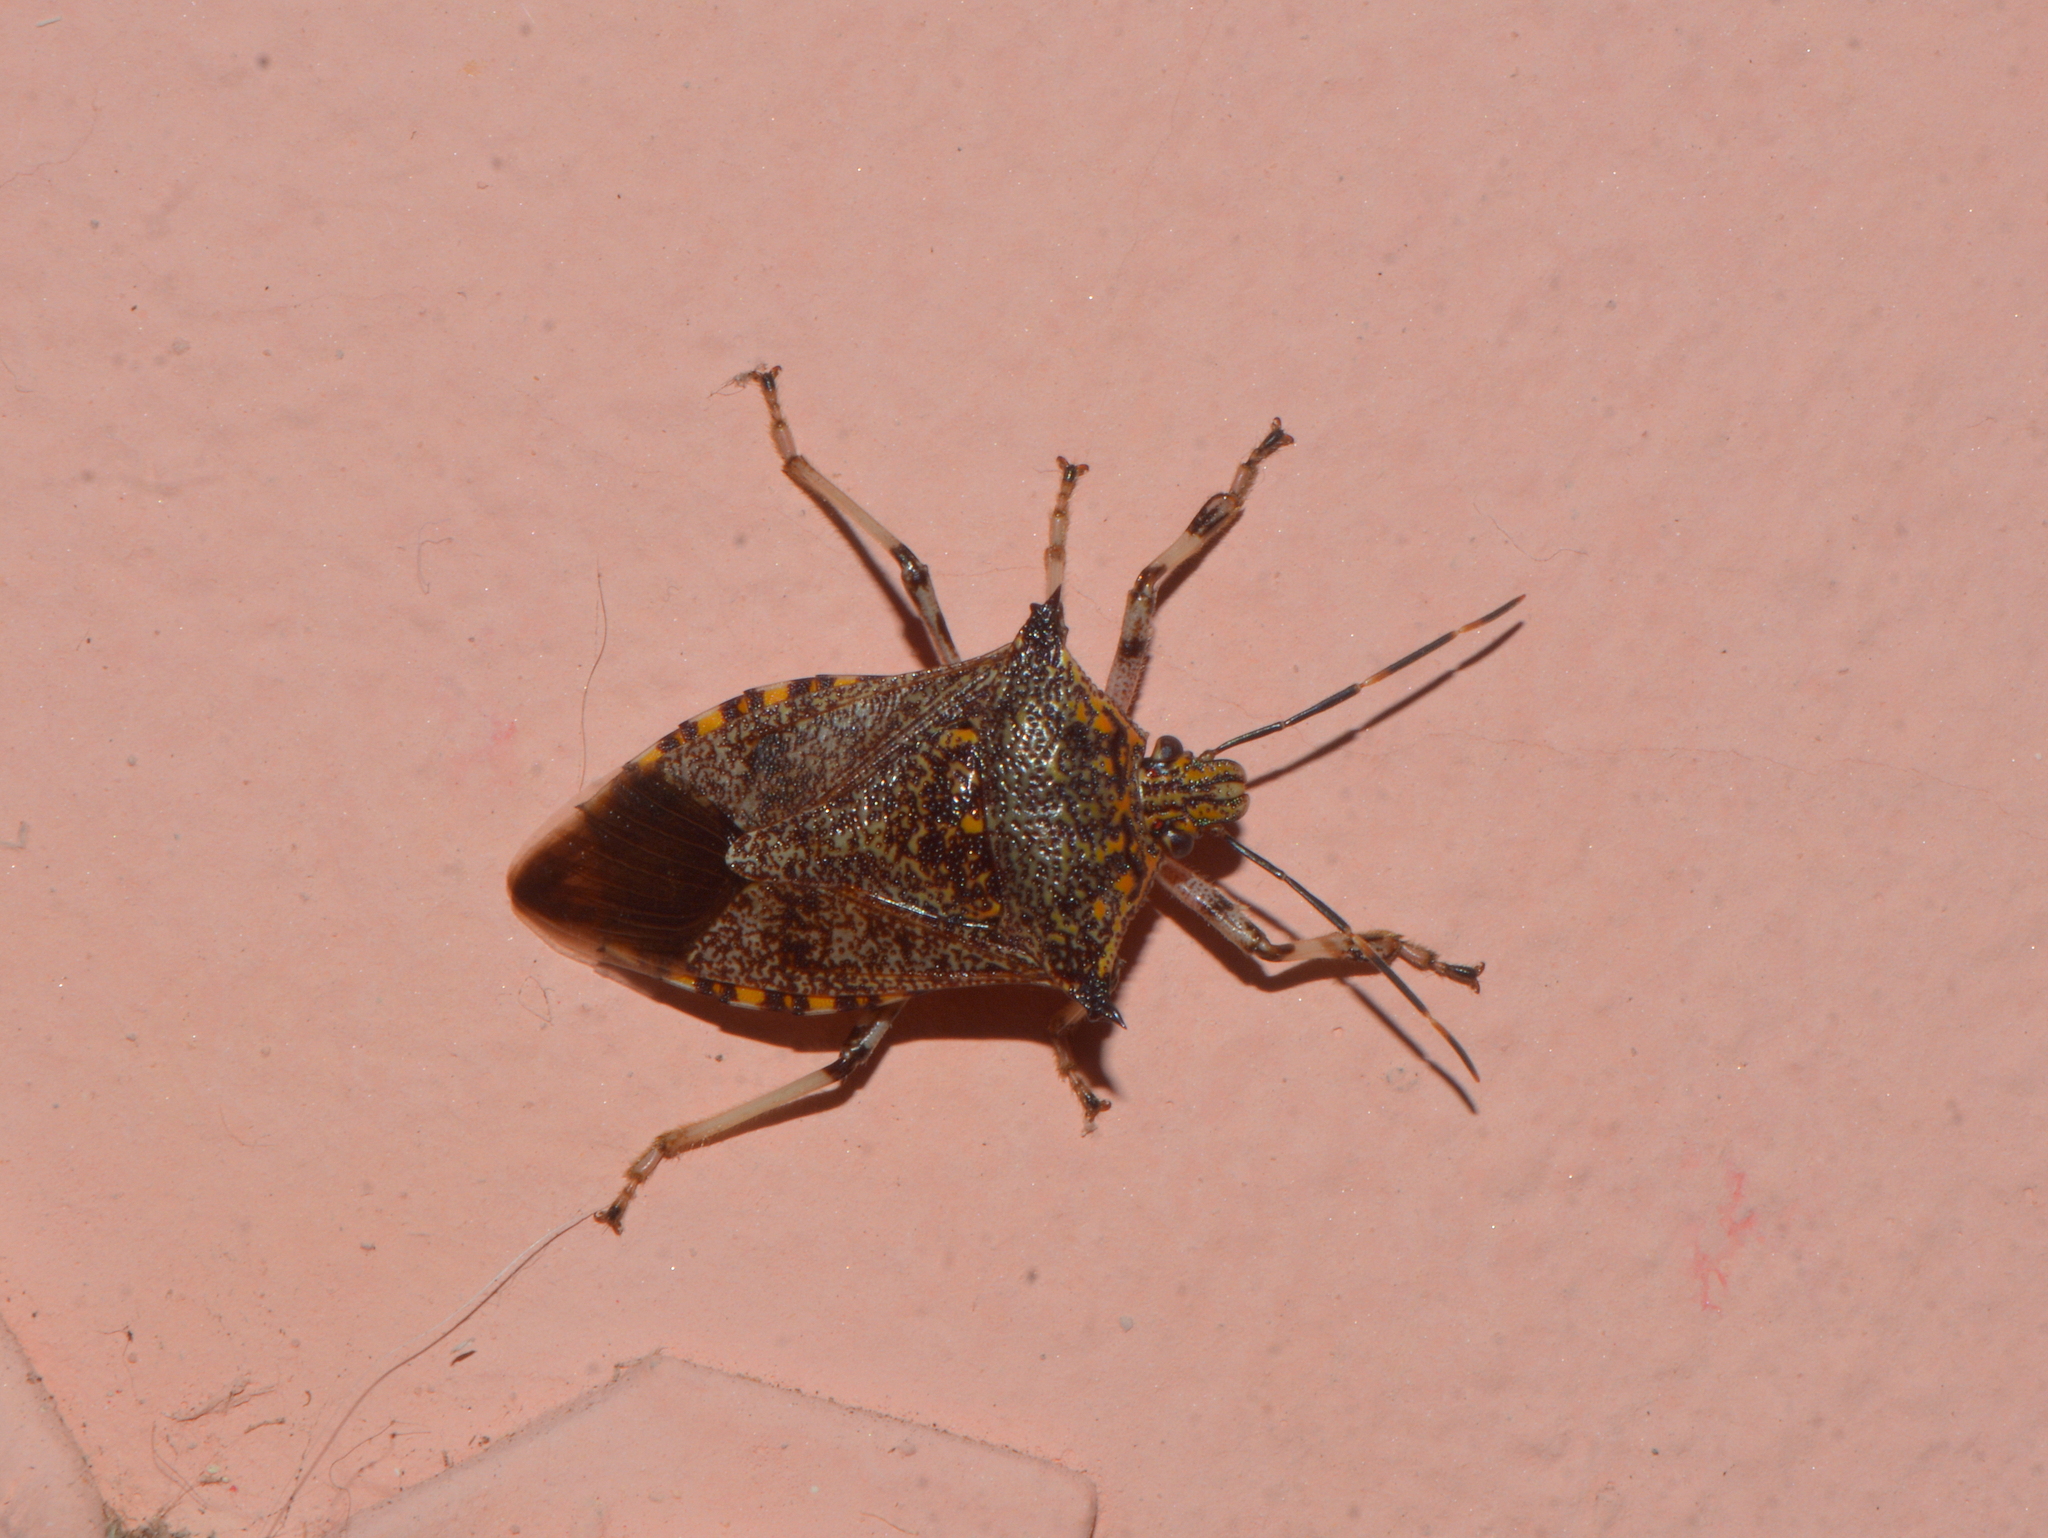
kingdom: Animalia
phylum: Arthropoda
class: Insecta
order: Hemiptera
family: Pentatomidae
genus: Alcaeorrhynchus
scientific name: Alcaeorrhynchus grandis
